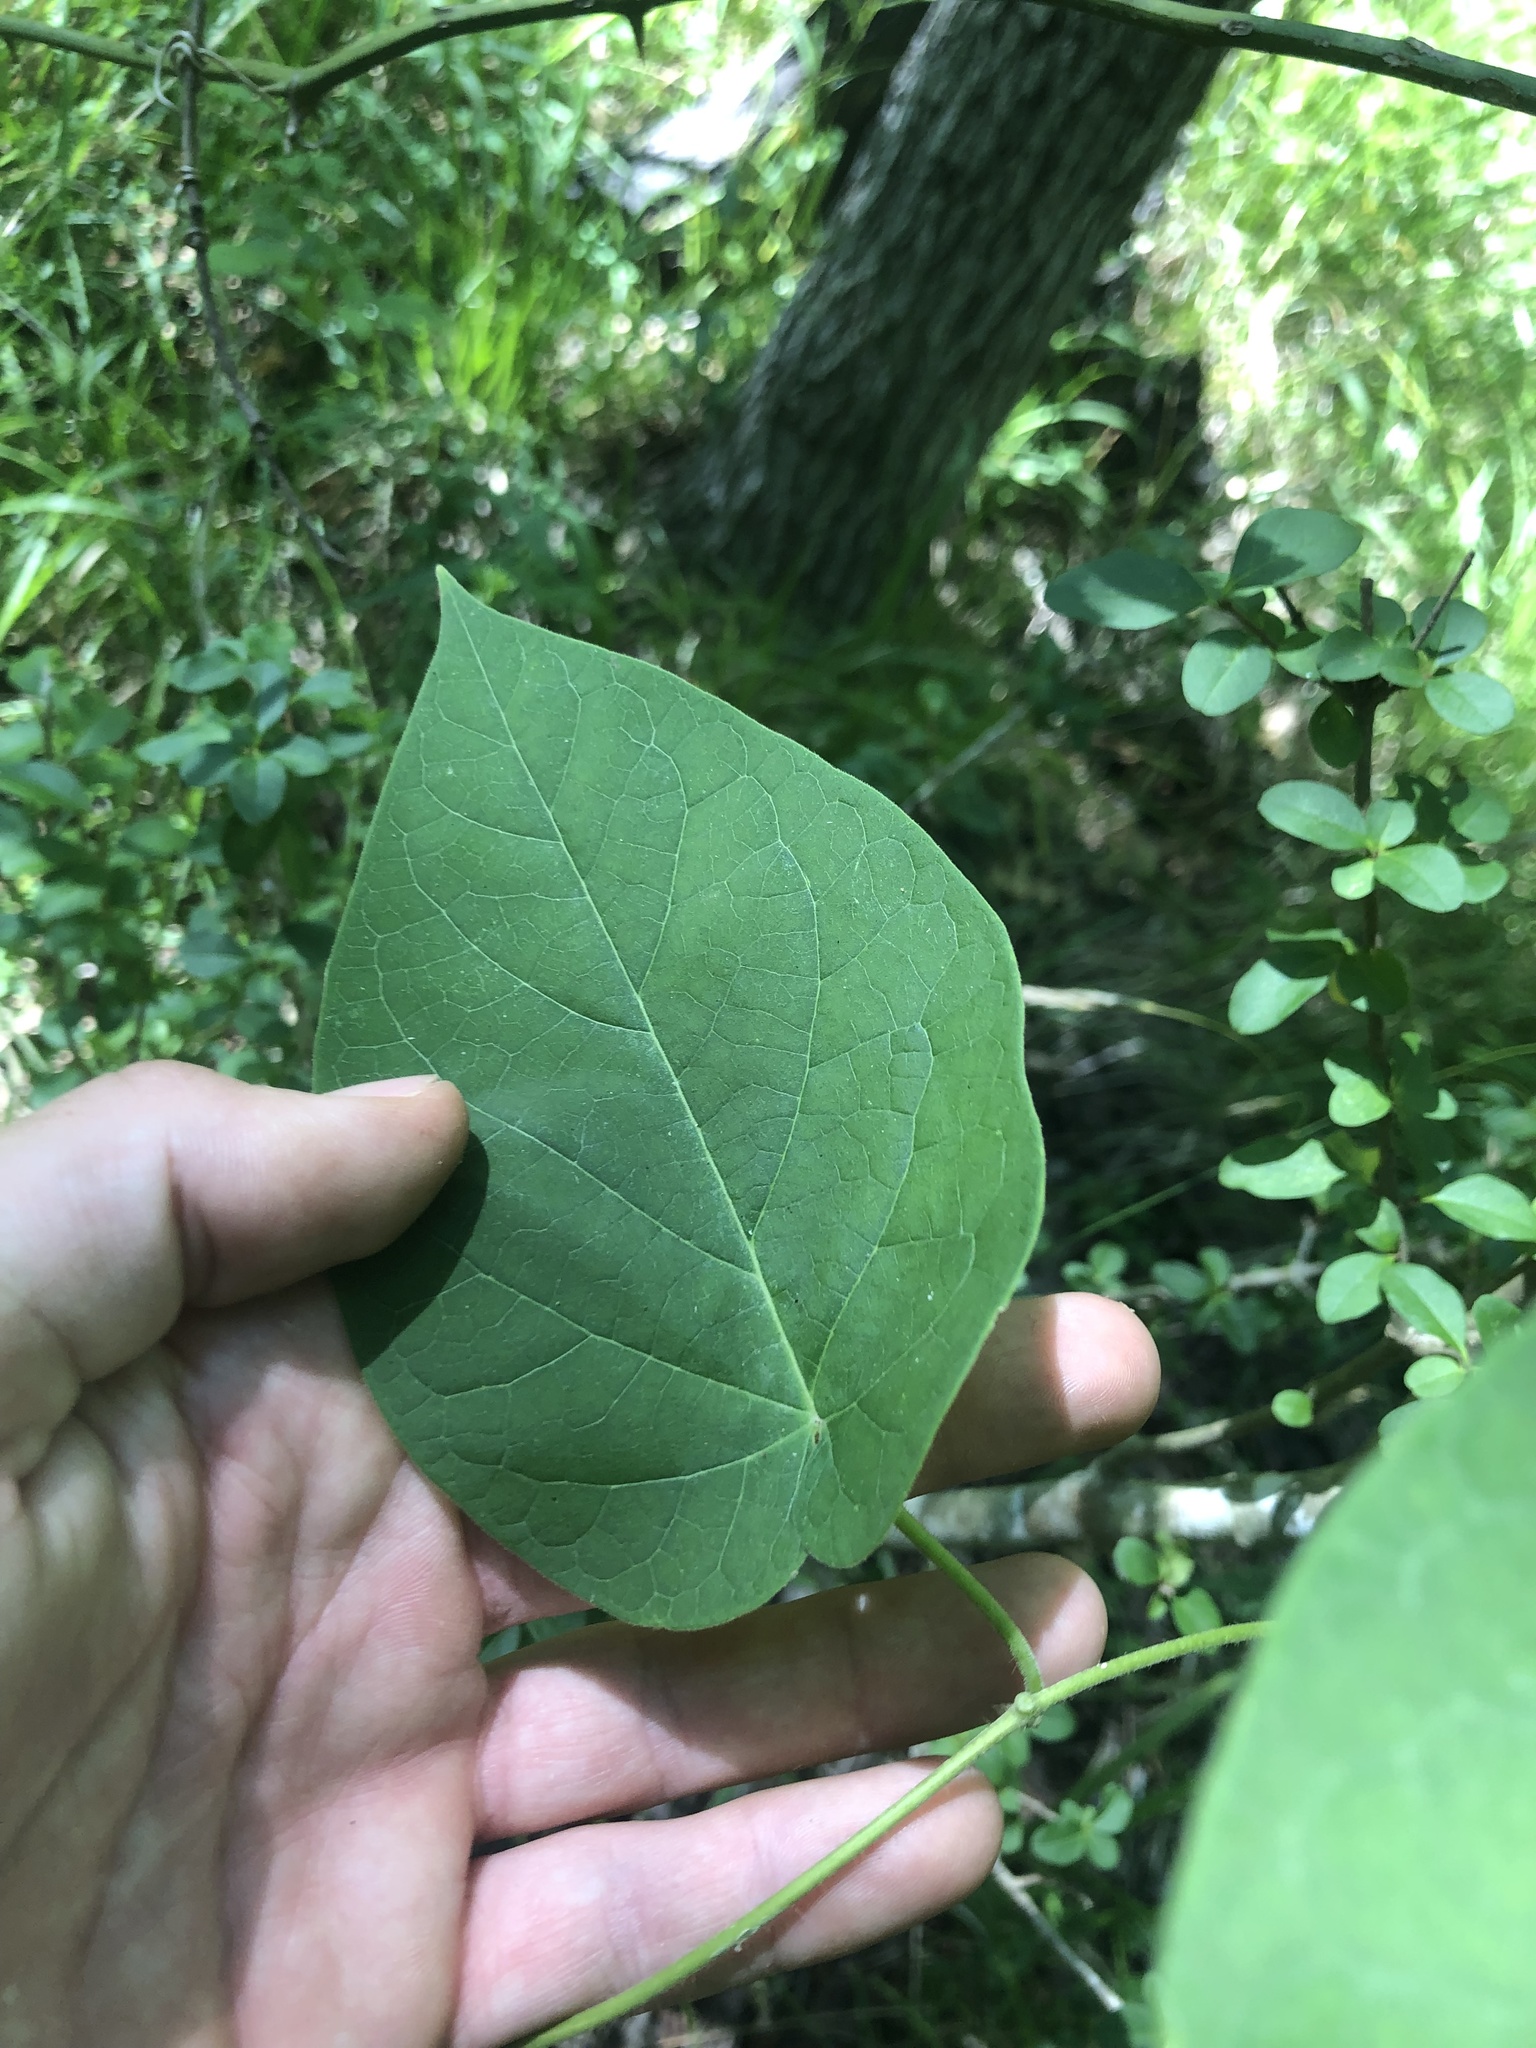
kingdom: Plantae
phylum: Tracheophyta
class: Magnoliopsida
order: Gentianales
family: Apocynaceae
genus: Matelea
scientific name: Matelea carolinensis
